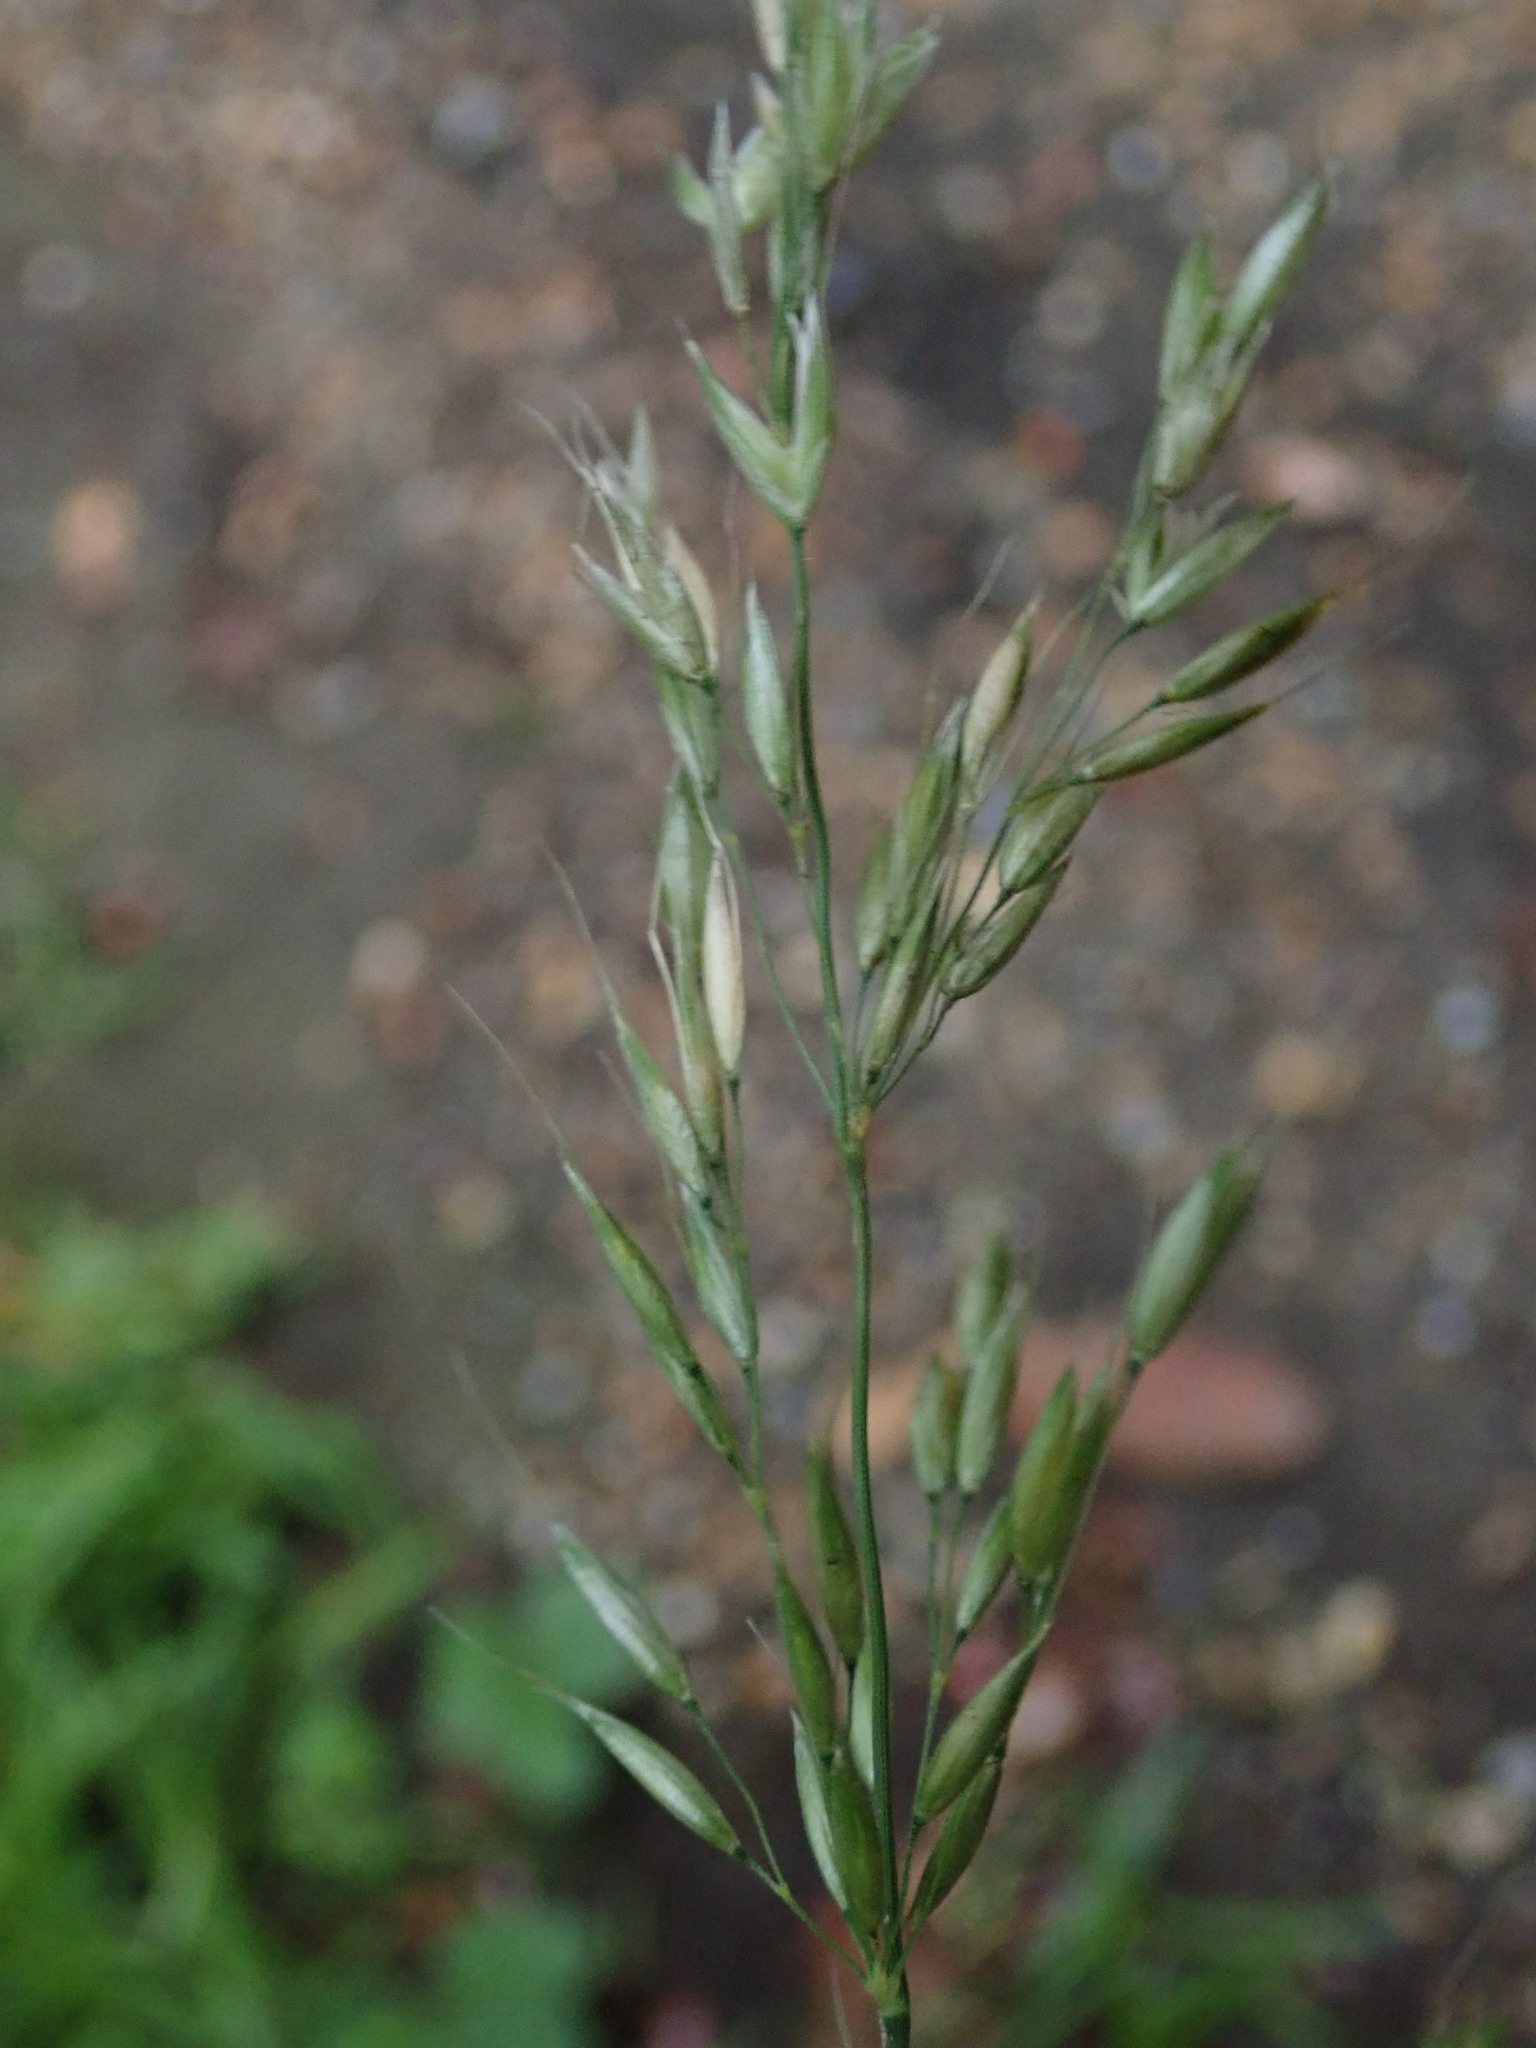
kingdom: Plantae
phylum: Tracheophyta
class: Liliopsida
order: Poales
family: Poaceae
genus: Arrhenatherum
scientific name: Arrhenatherum elatius
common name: Tall oatgrass
